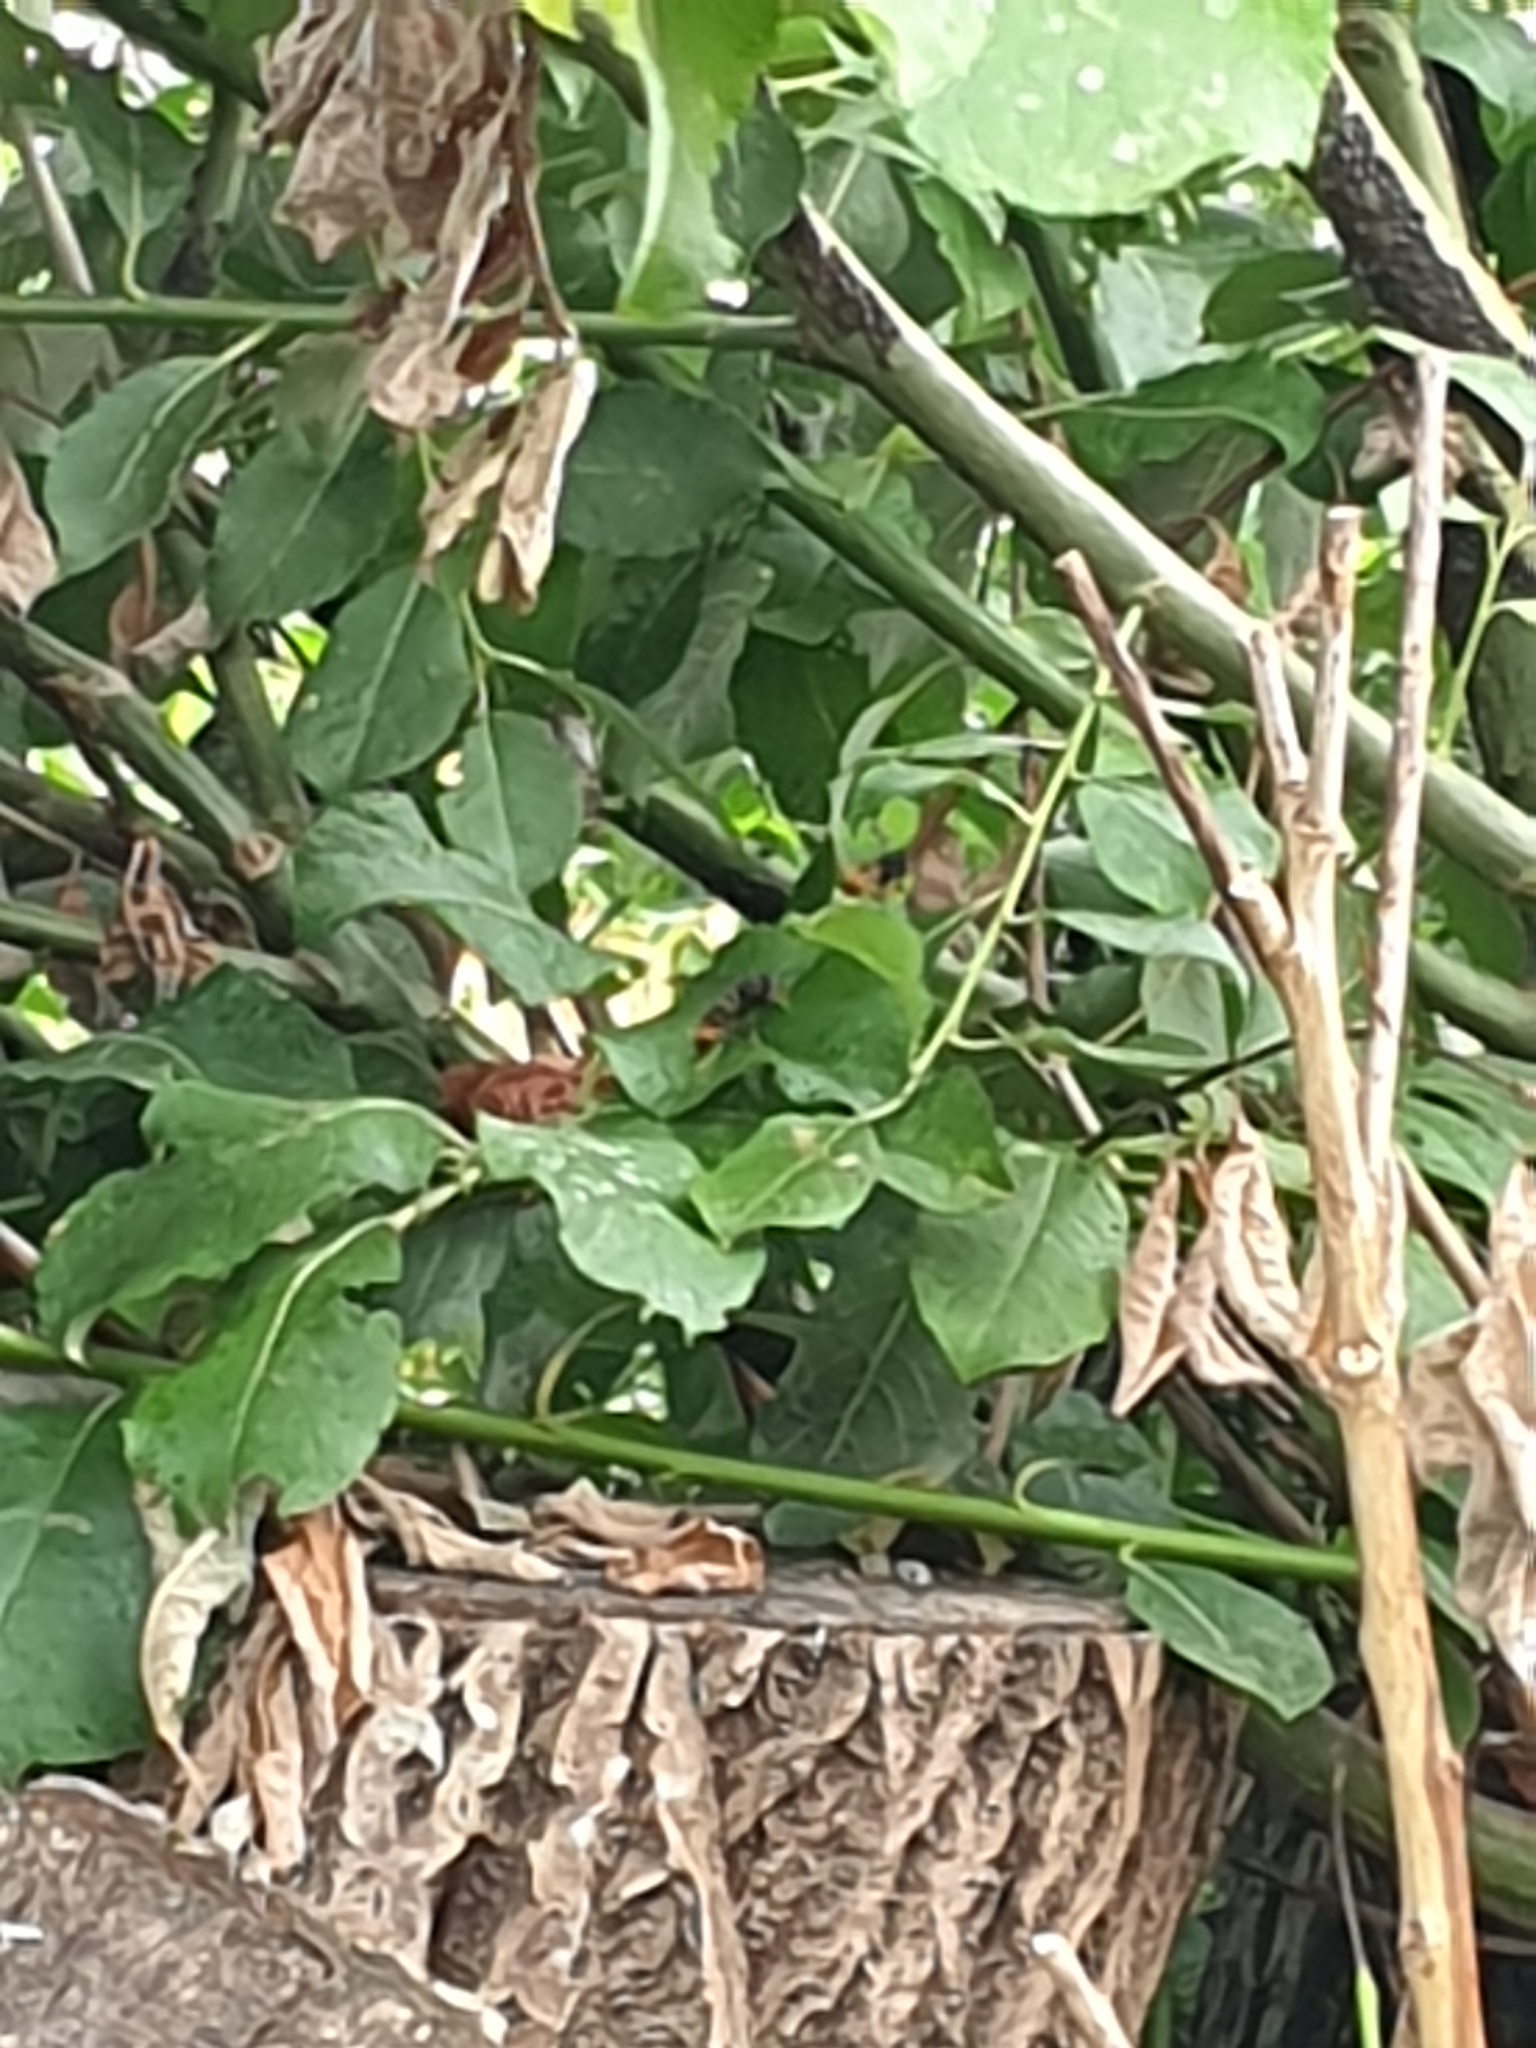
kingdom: Animalia
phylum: Arthropoda
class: Insecta
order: Hymenoptera
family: Vespidae
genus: Vespa
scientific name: Vespa velutina
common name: Asian hornet
